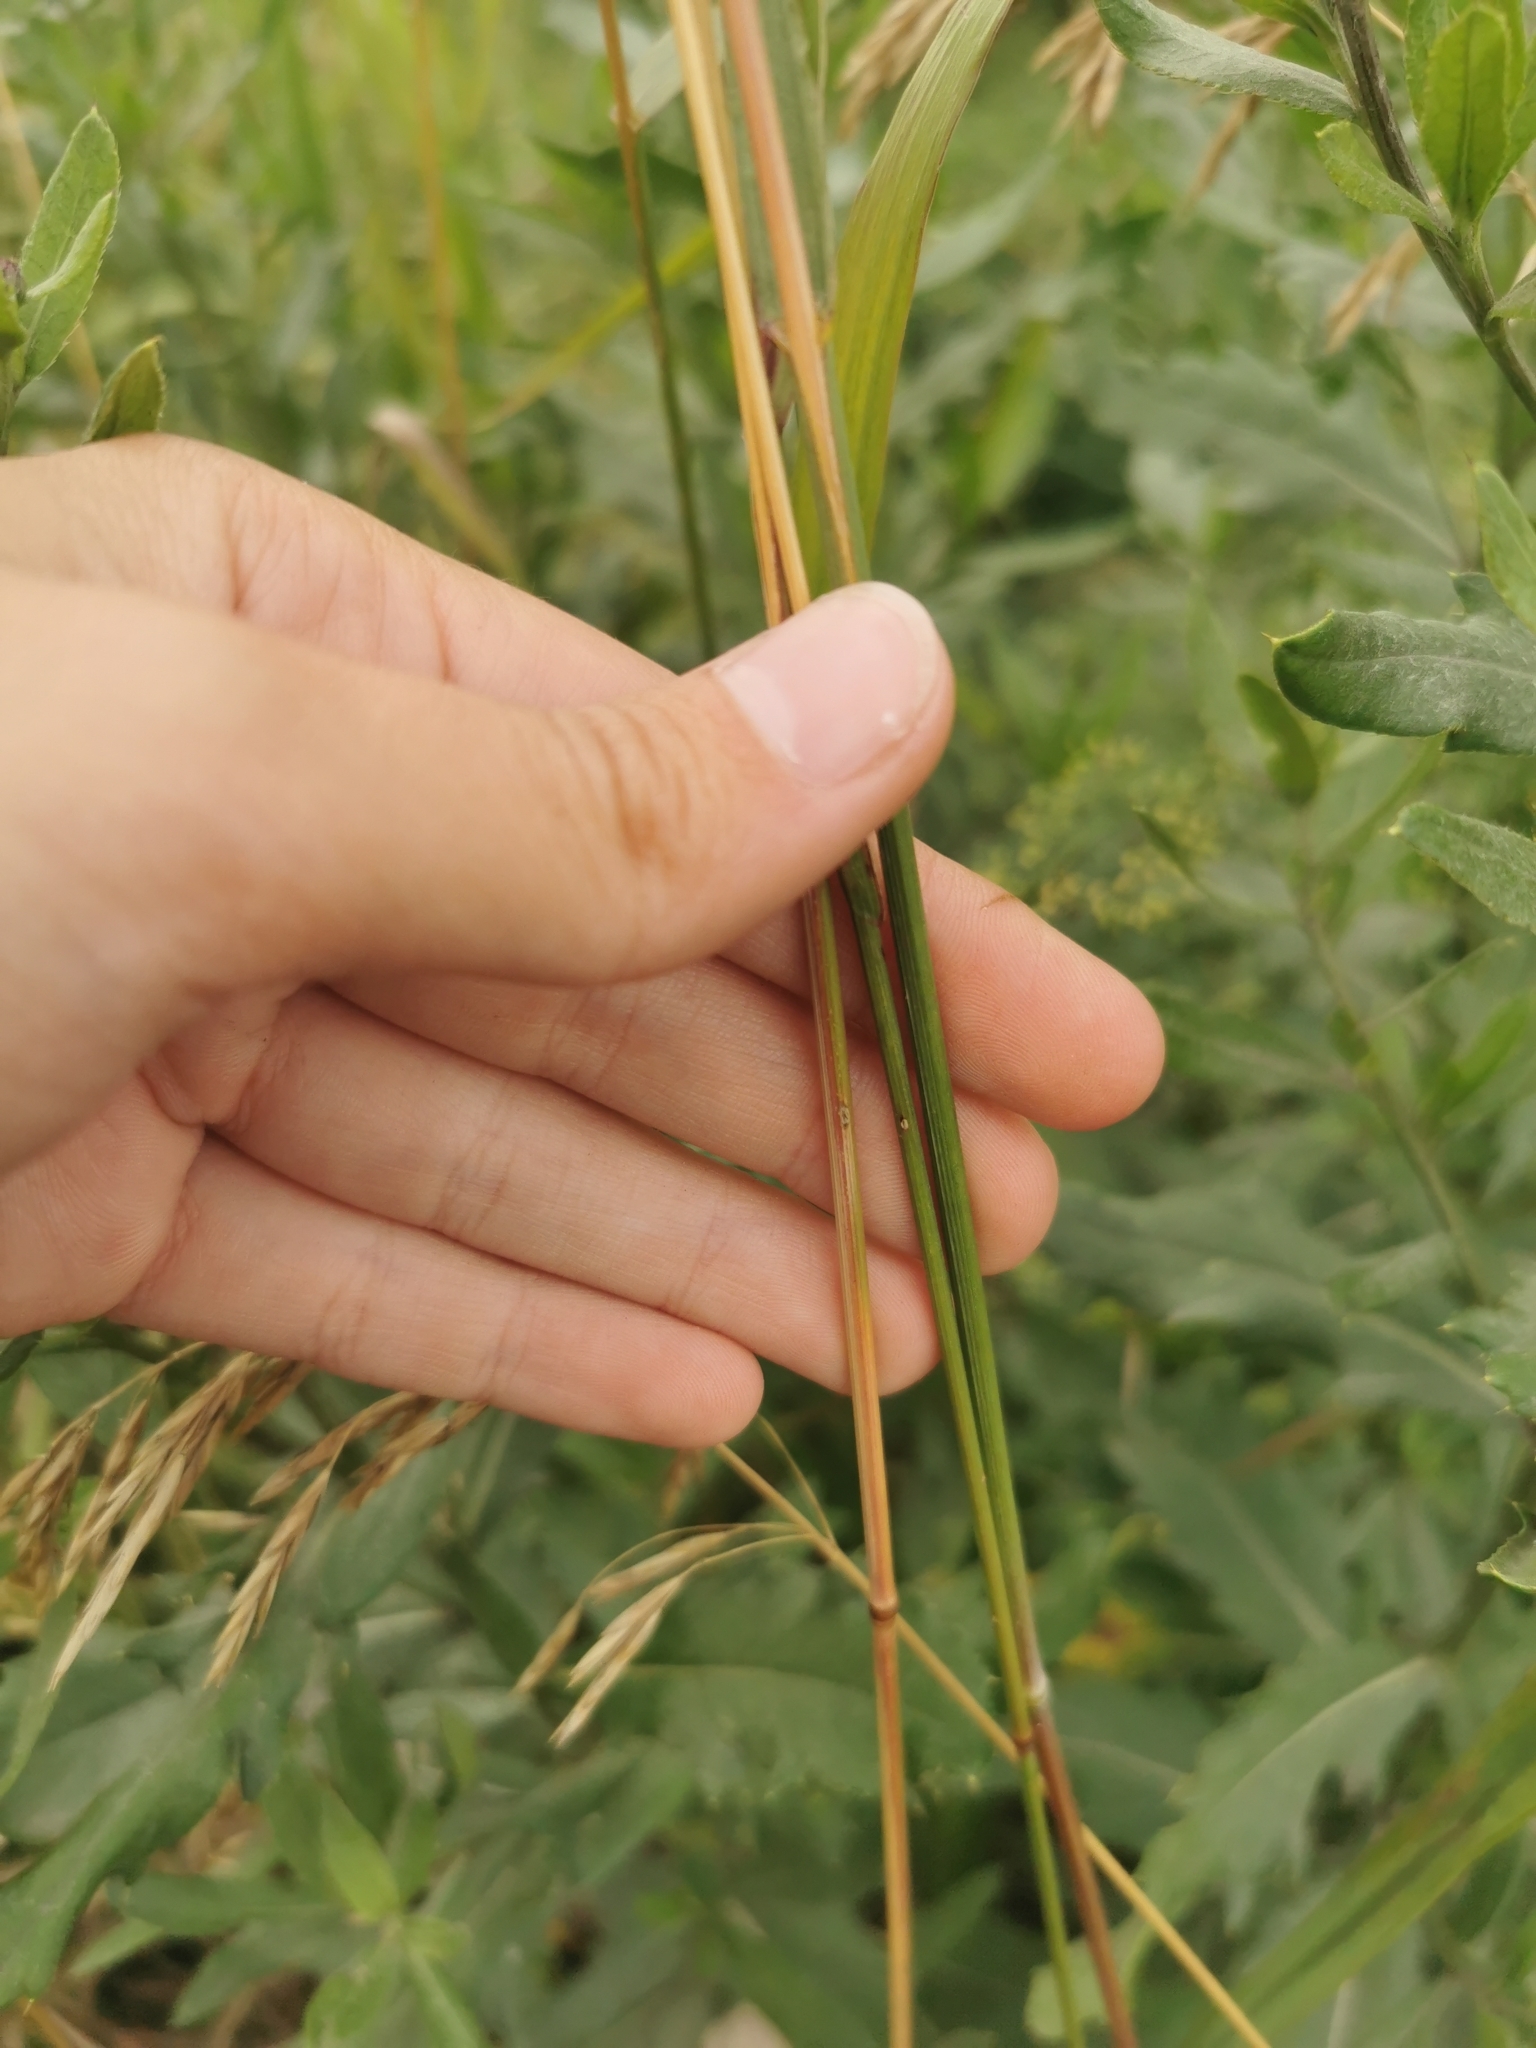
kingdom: Plantae
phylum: Tracheophyta
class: Liliopsida
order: Poales
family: Poaceae
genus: Bromus
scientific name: Bromus inermis
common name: Smooth brome
